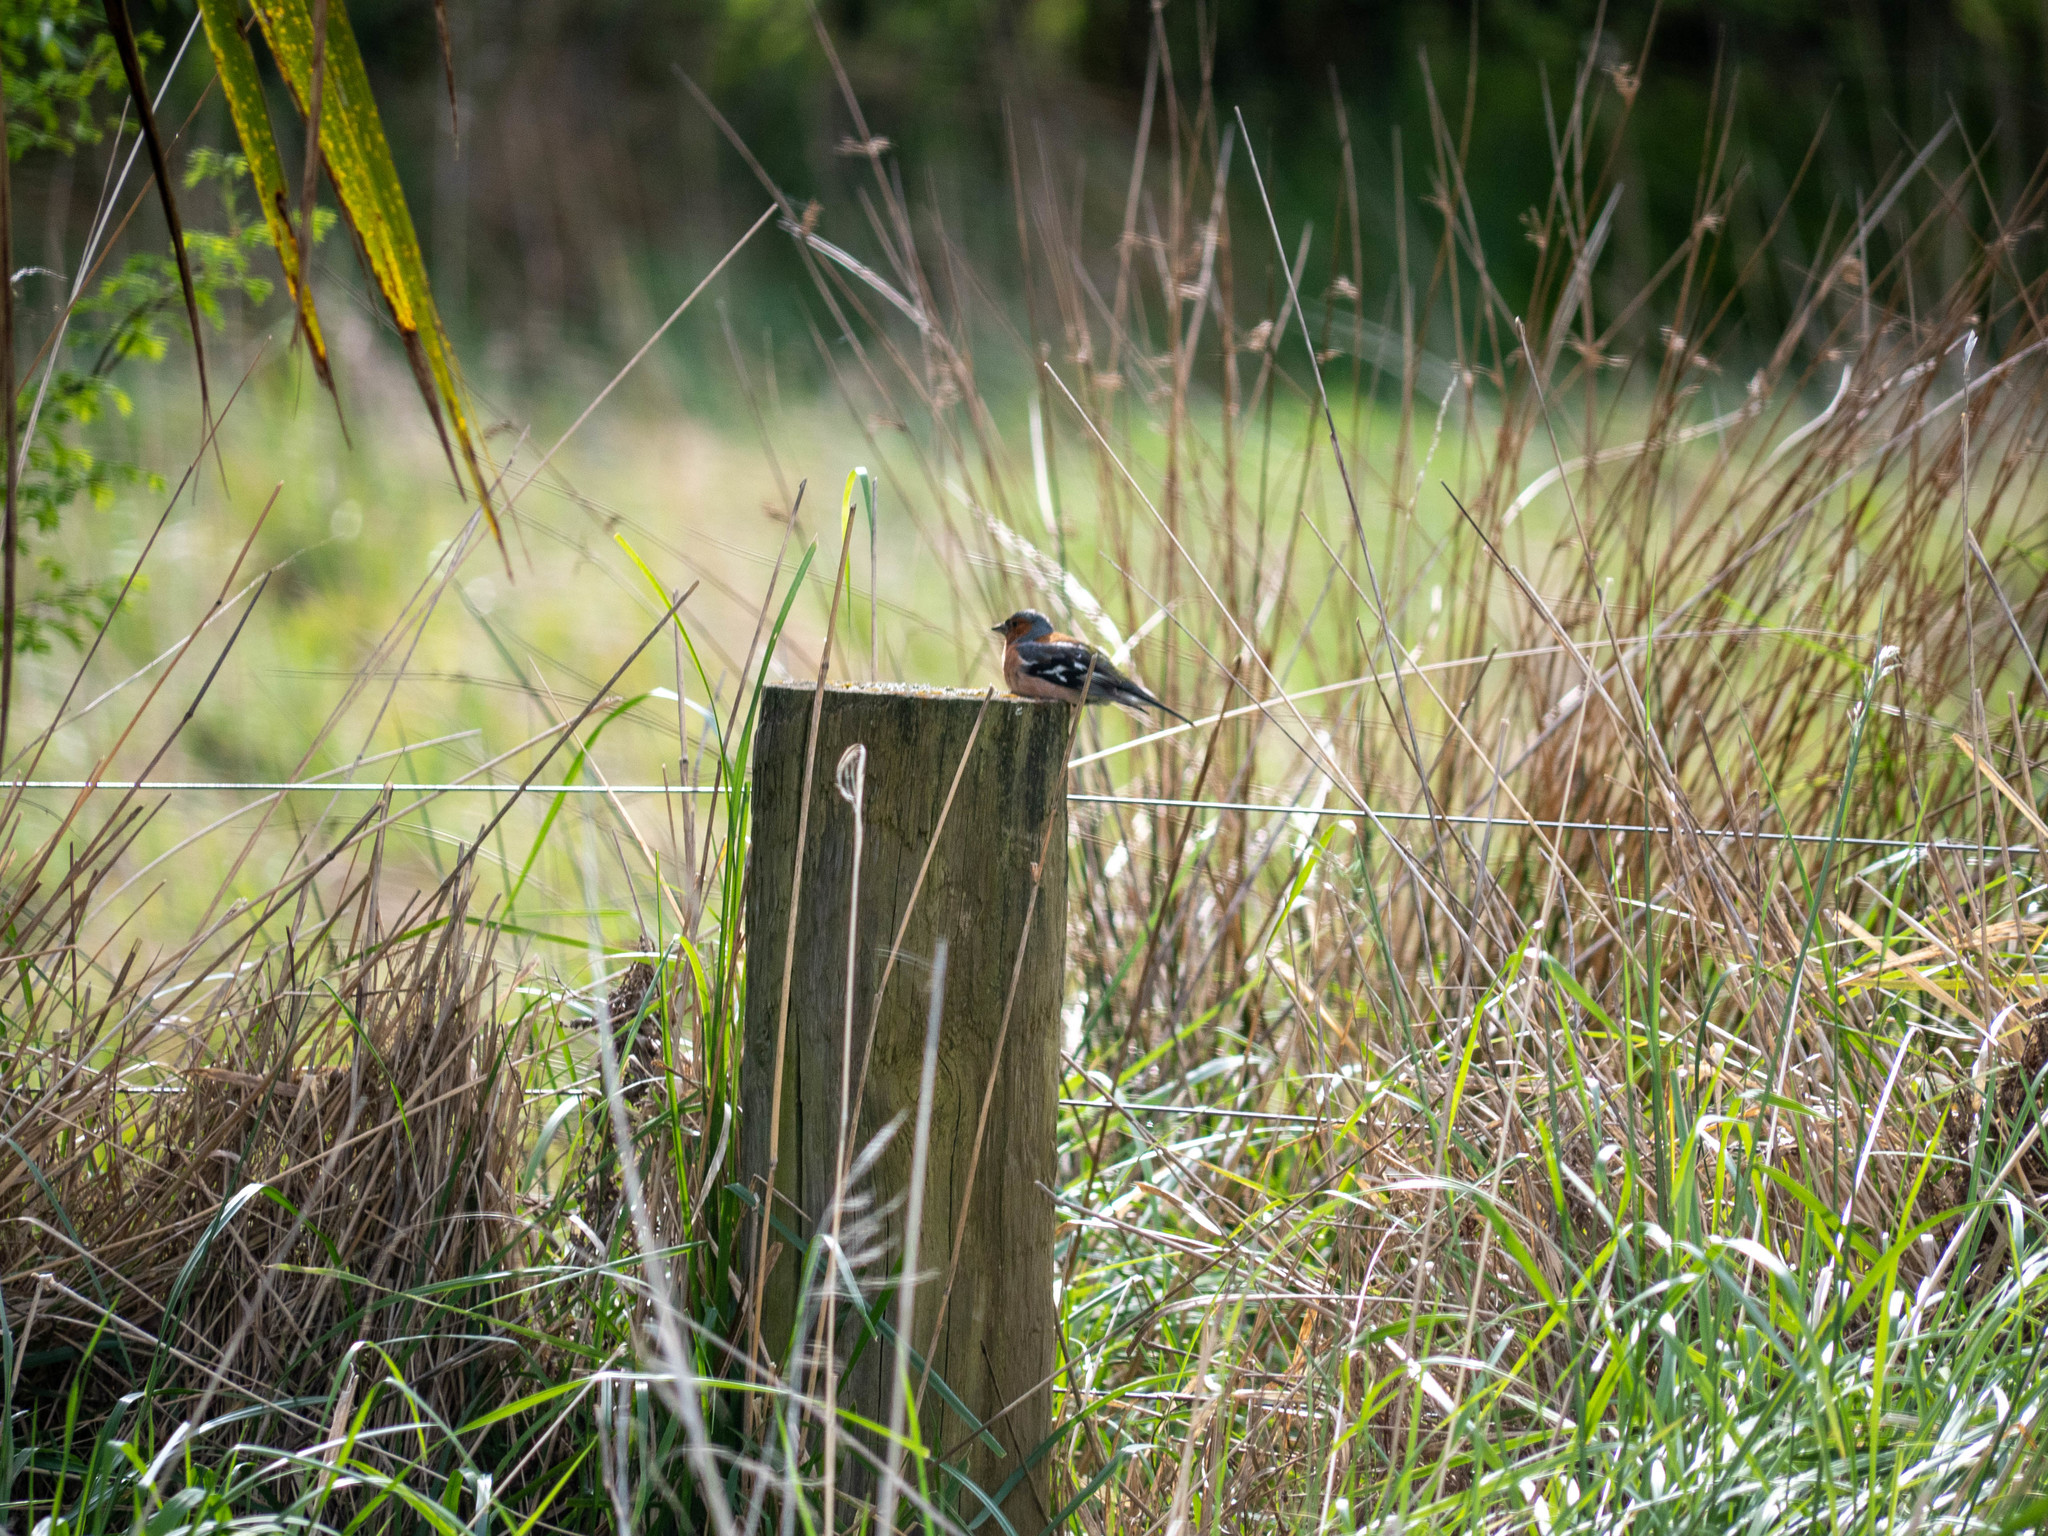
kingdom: Animalia
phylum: Chordata
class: Aves
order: Passeriformes
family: Fringillidae
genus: Fringilla
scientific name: Fringilla coelebs
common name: Common chaffinch
